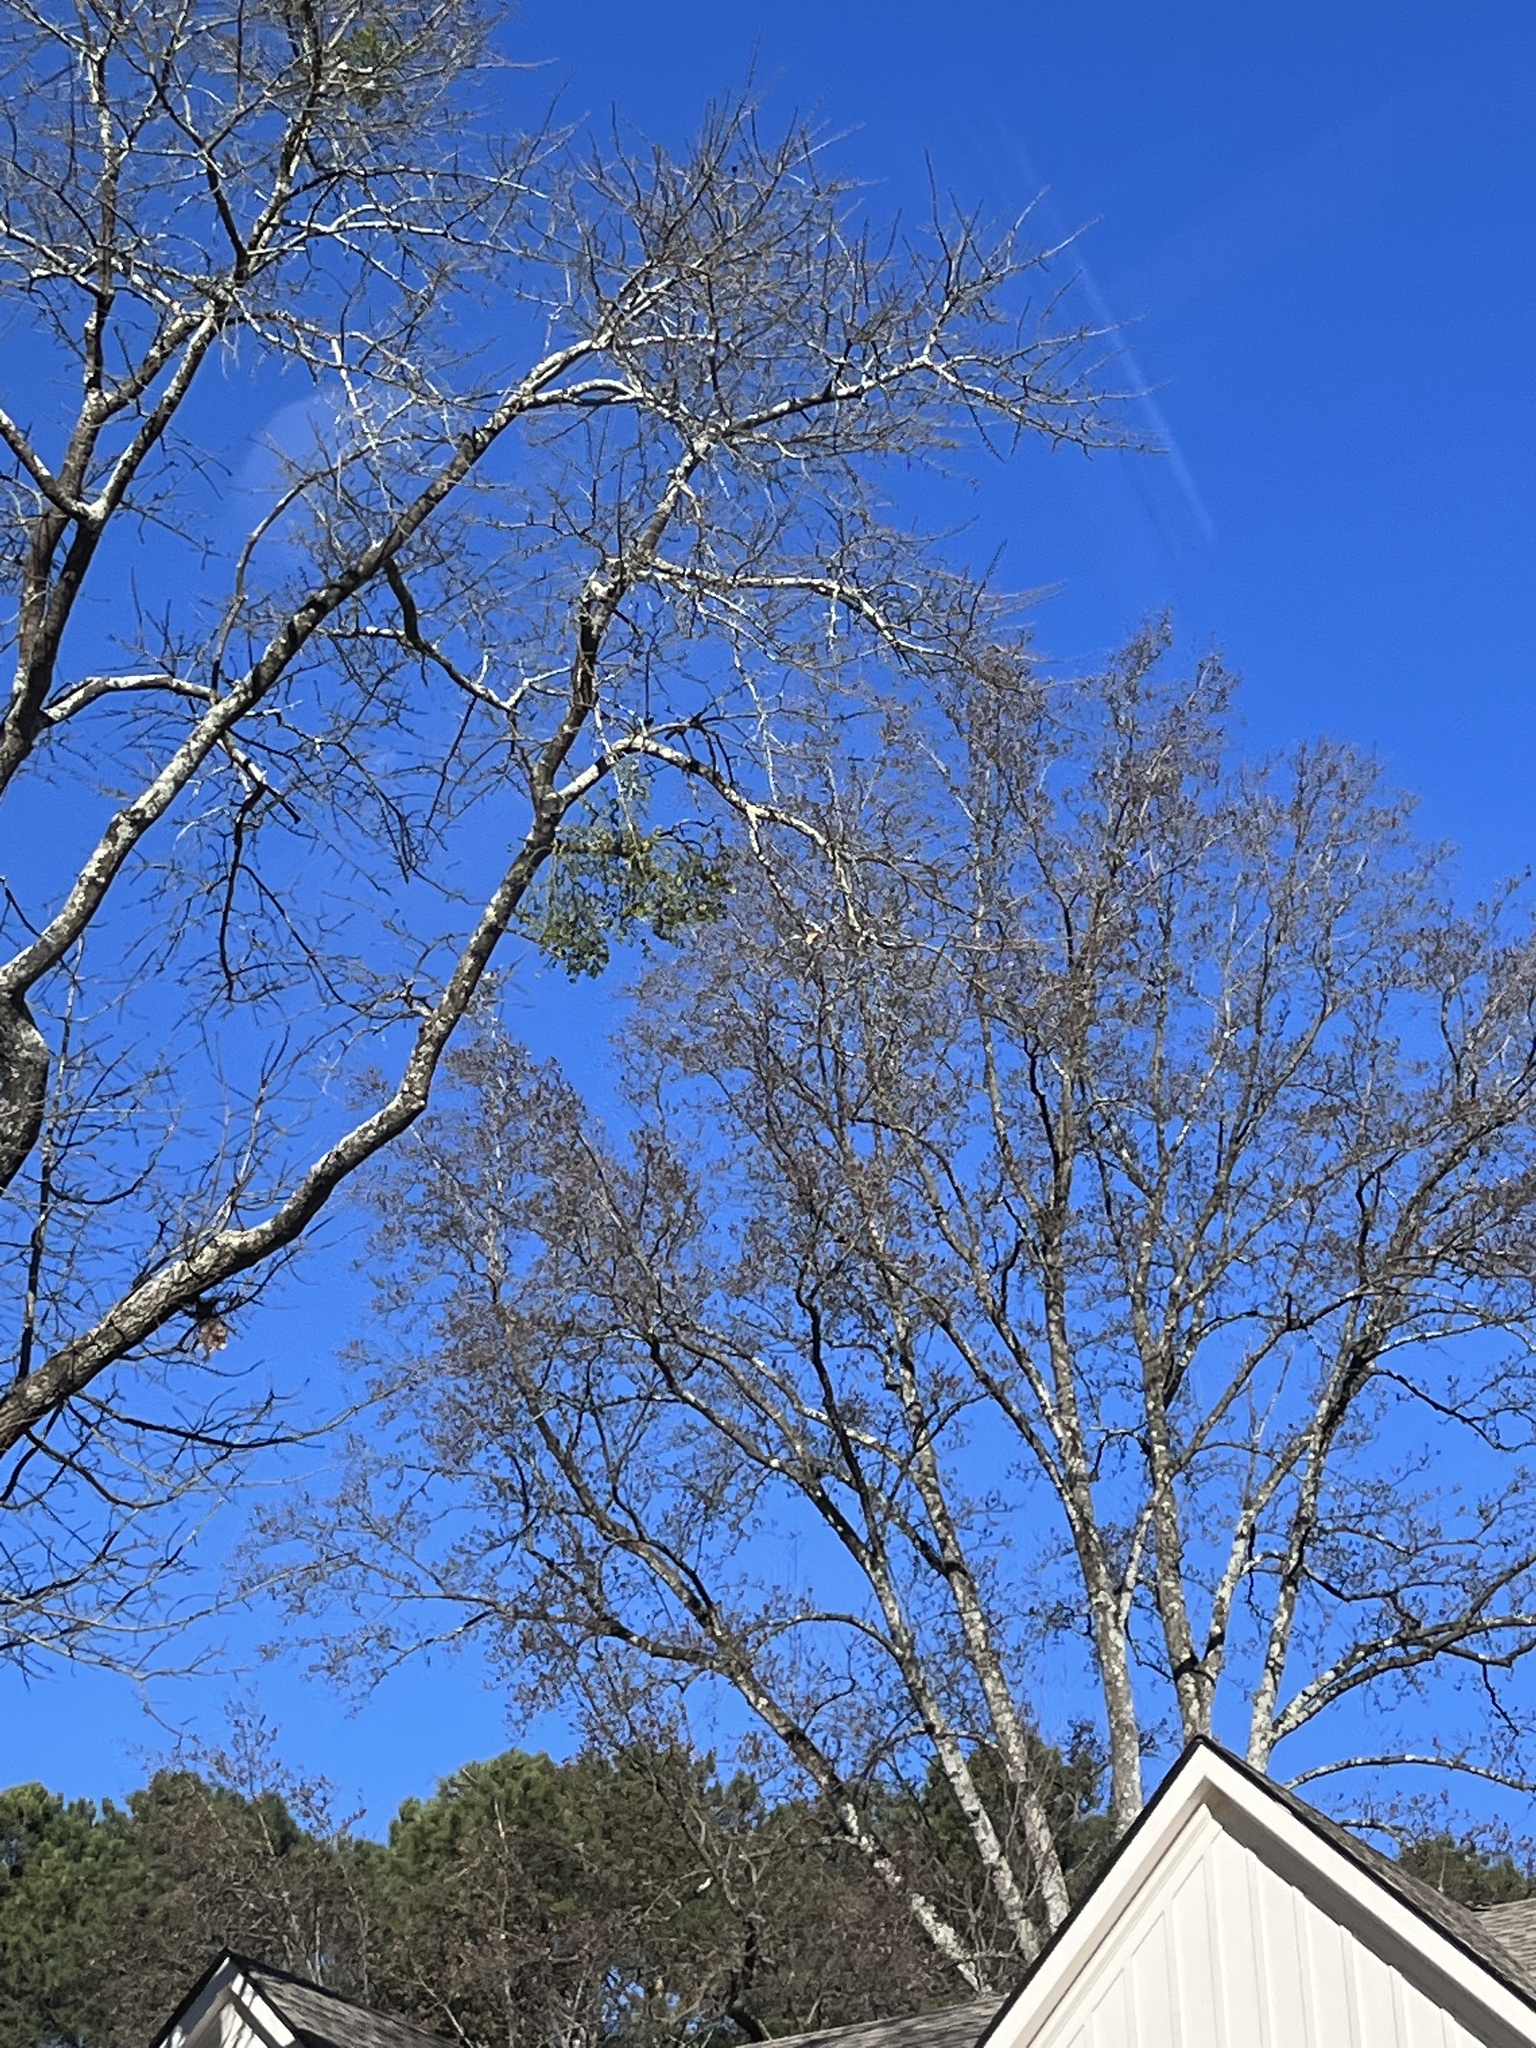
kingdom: Plantae
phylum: Tracheophyta
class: Magnoliopsida
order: Santalales
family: Viscaceae
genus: Phoradendron
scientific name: Phoradendron leucarpum
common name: Pacific mistletoe
